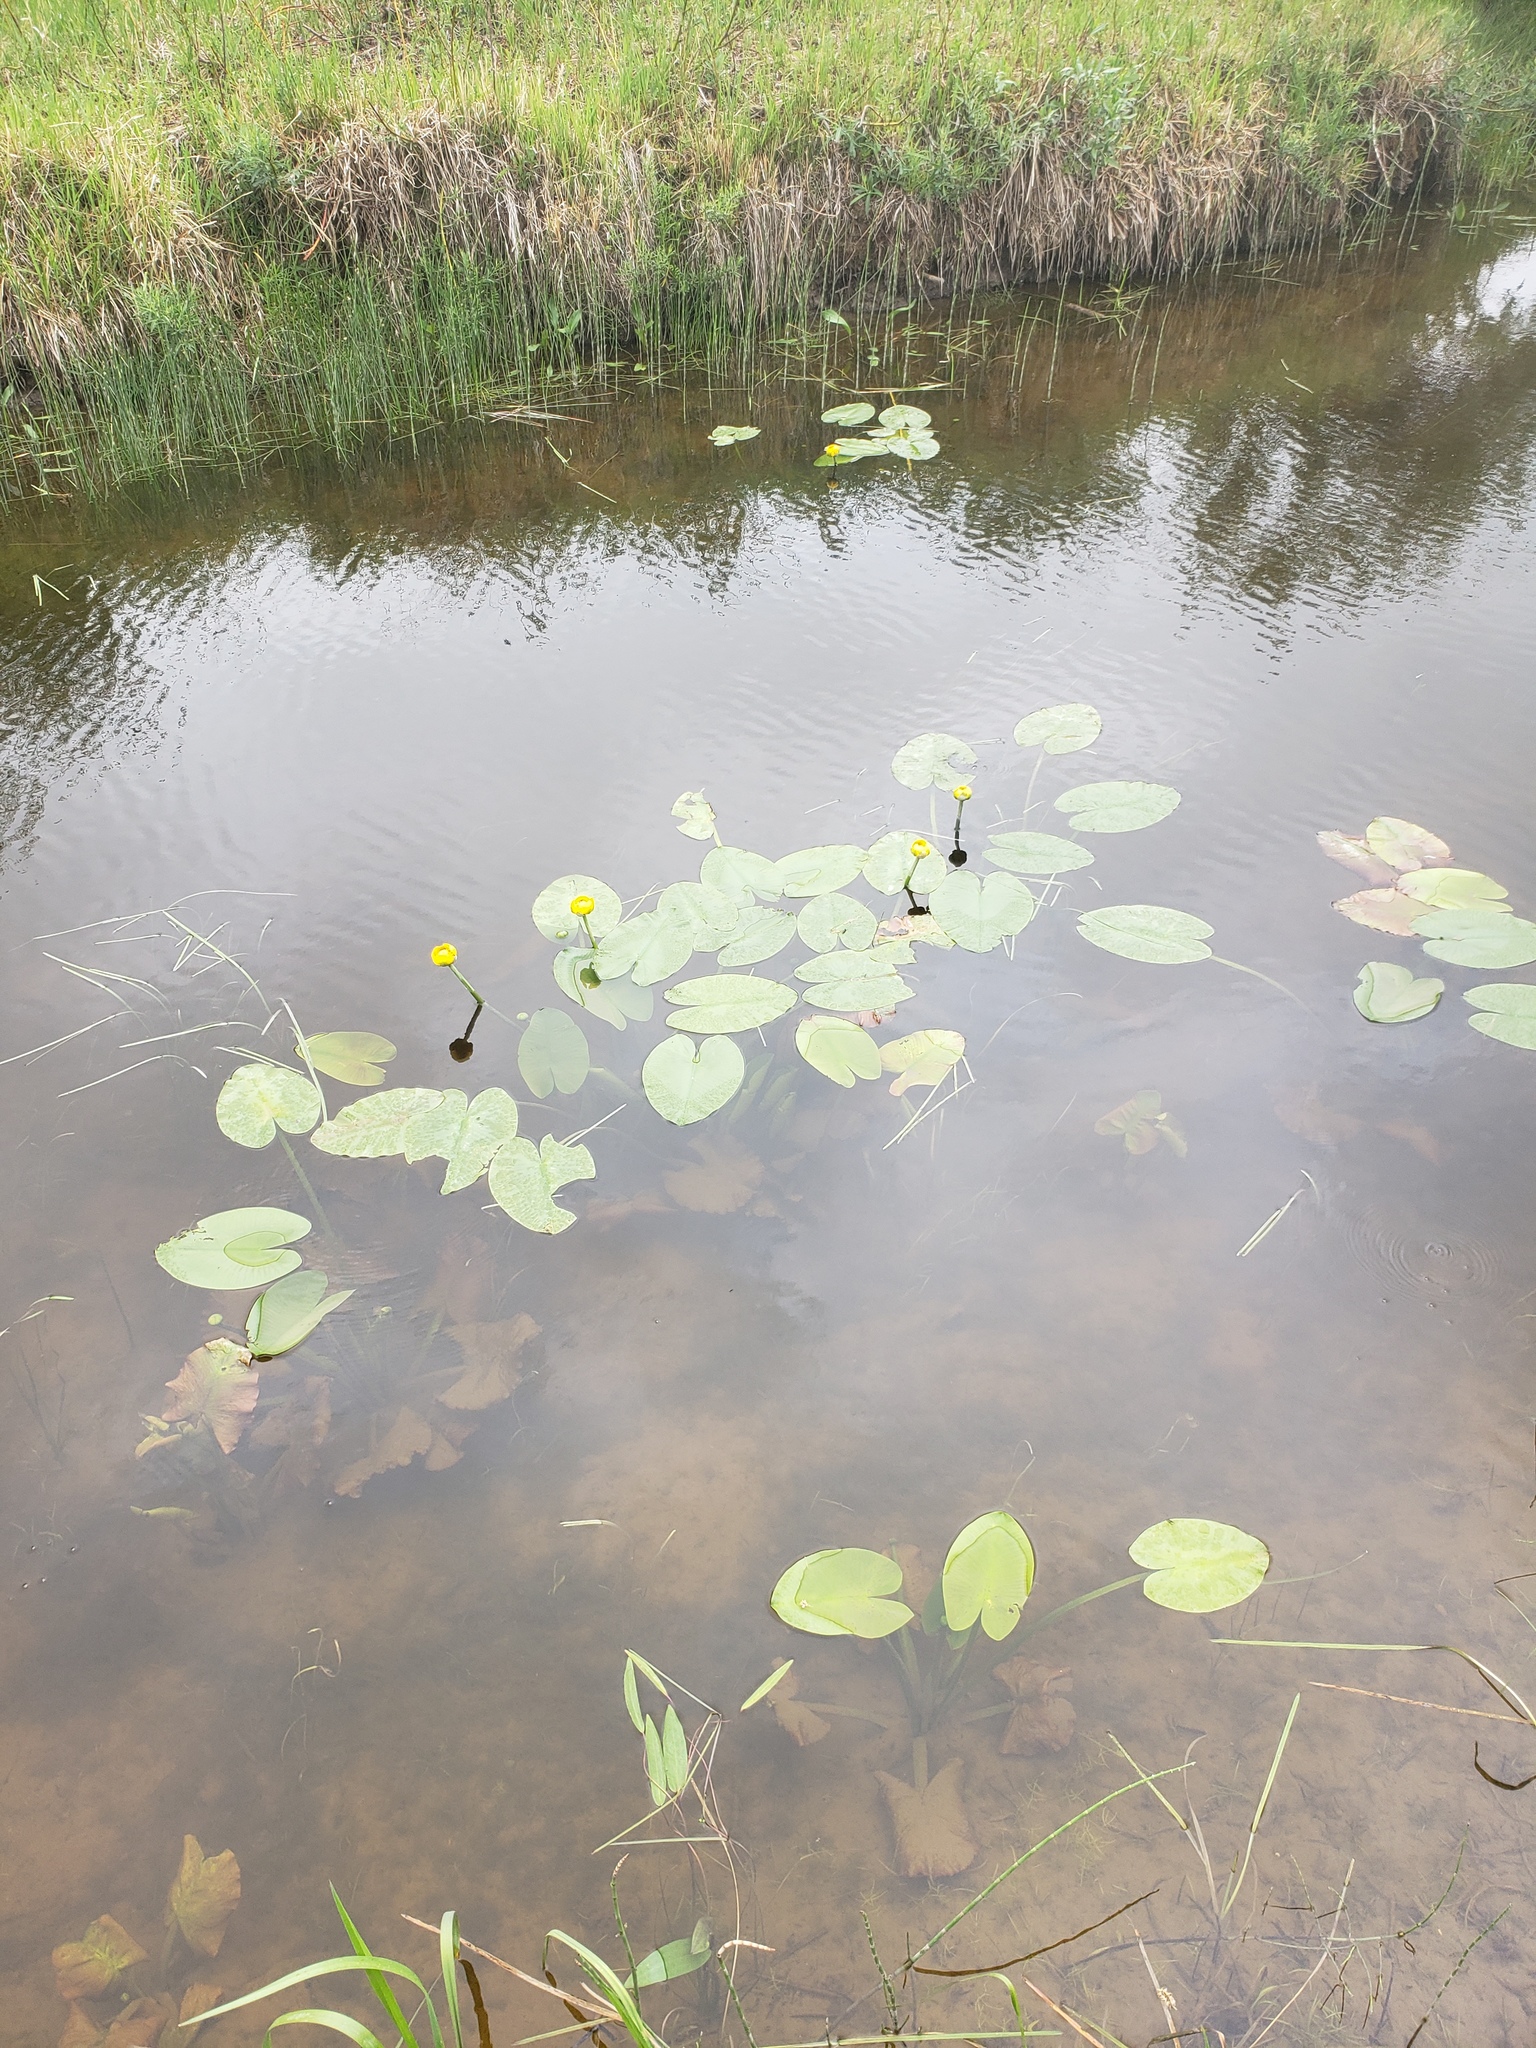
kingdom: Plantae
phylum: Tracheophyta
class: Magnoliopsida
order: Nymphaeales
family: Nymphaeaceae
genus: Nuphar
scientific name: Nuphar variegata
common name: Beaver-root
